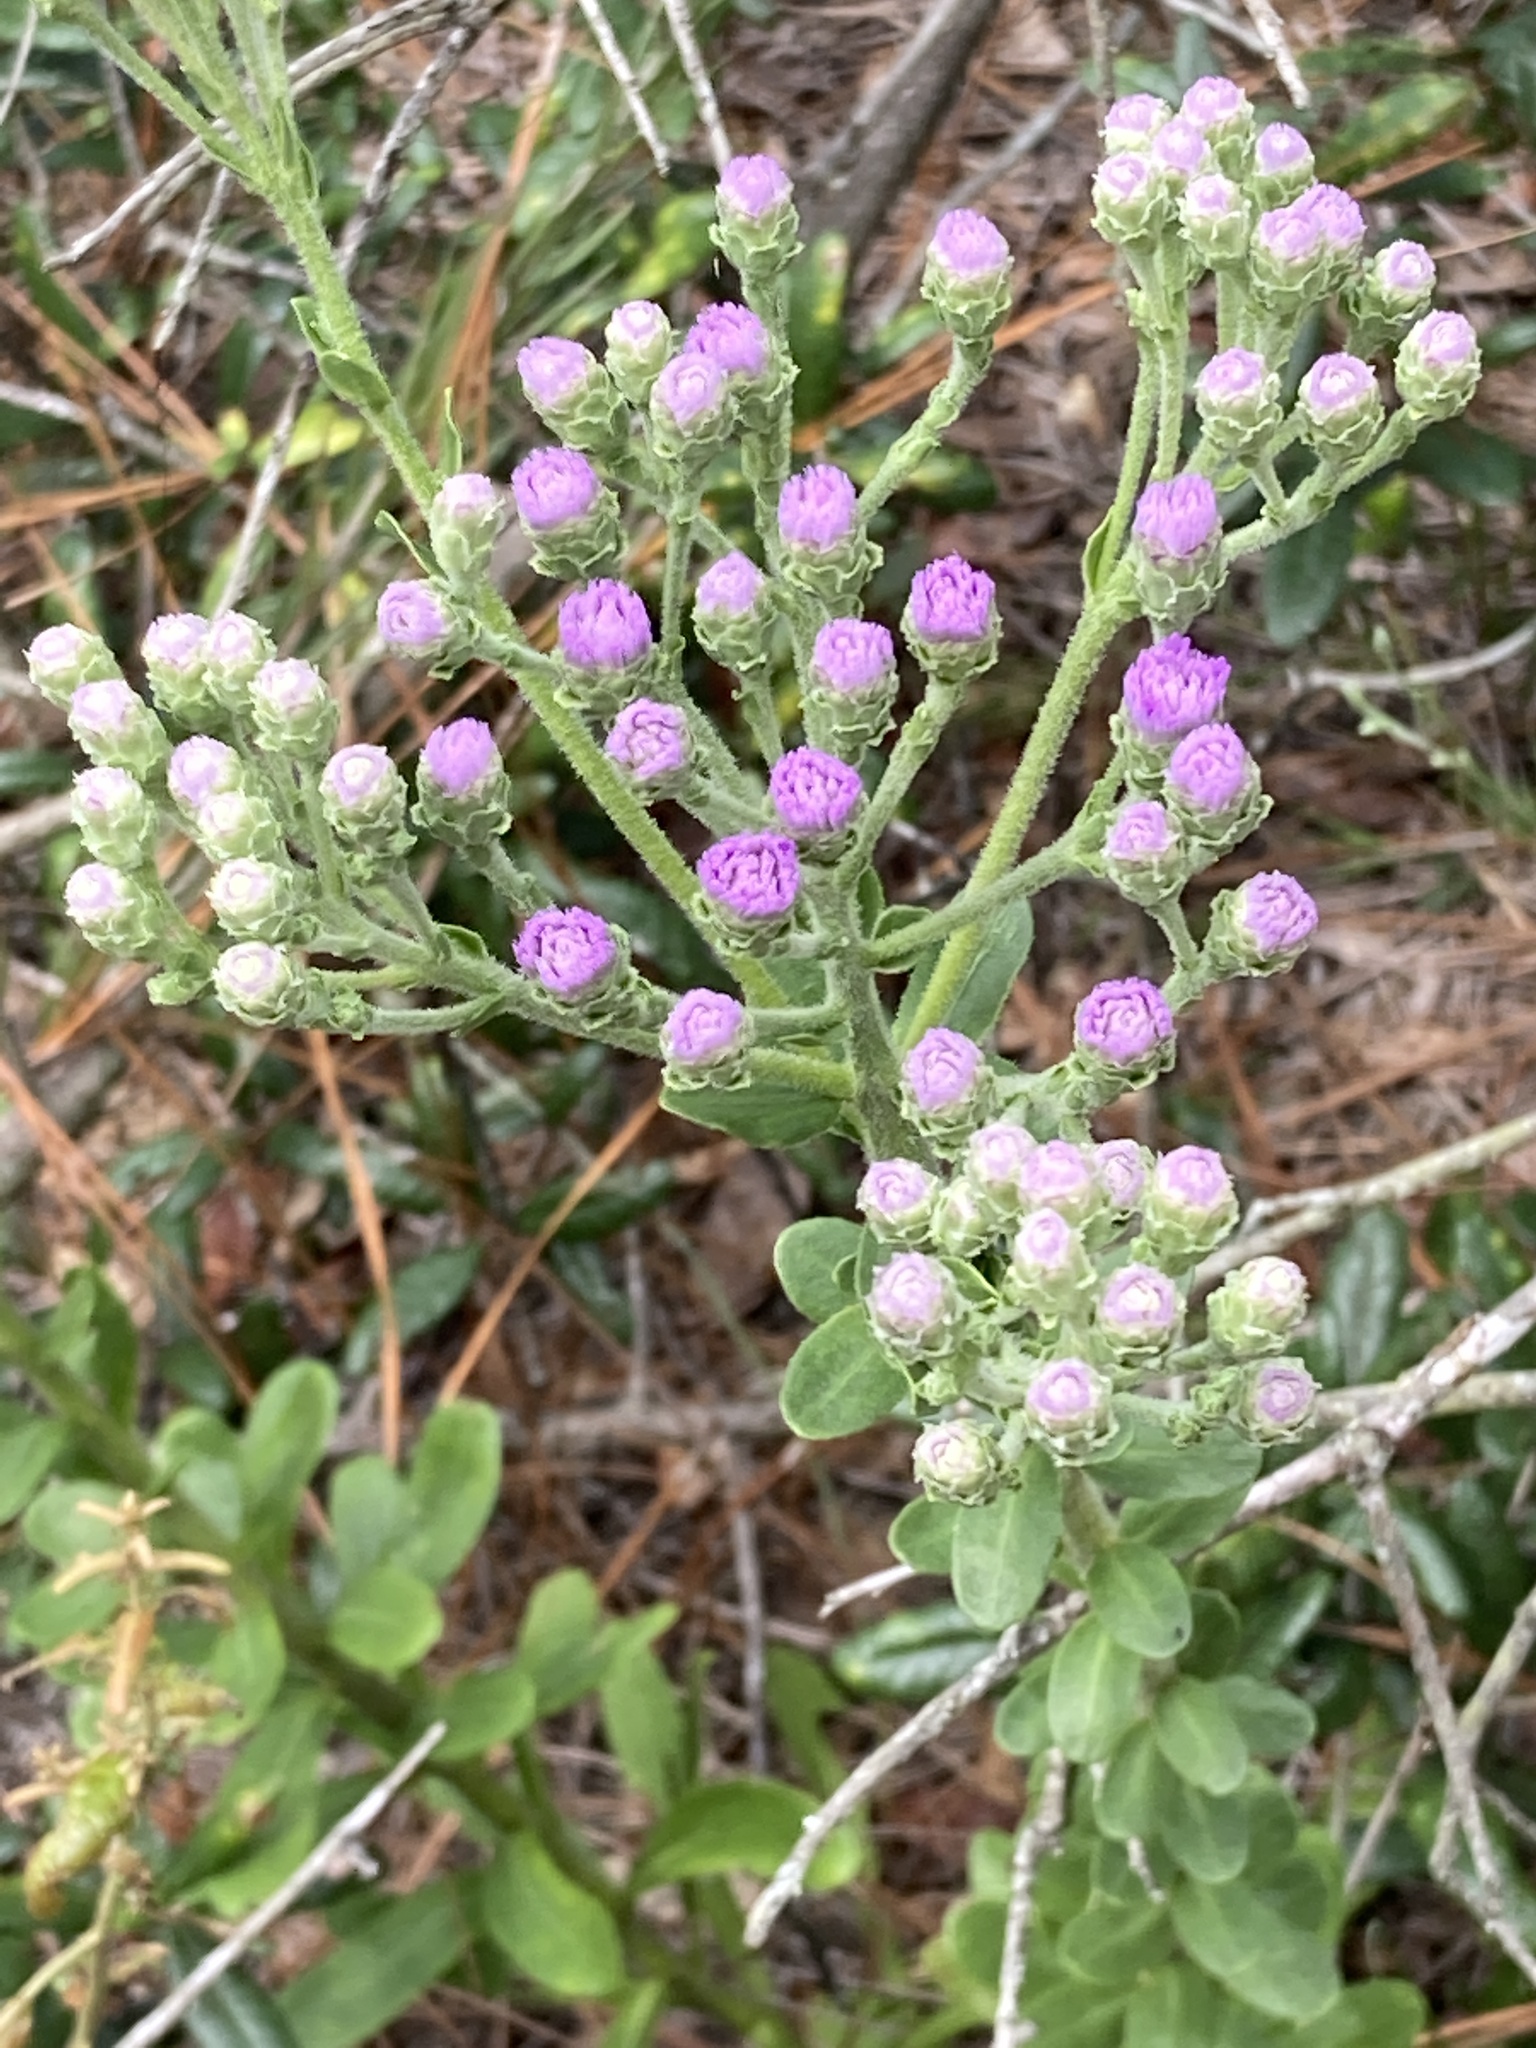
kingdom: Plantae
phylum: Tracheophyta
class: Magnoliopsida
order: Asterales
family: Asteraceae
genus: Carphephorus
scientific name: Carphephorus corymbosus
